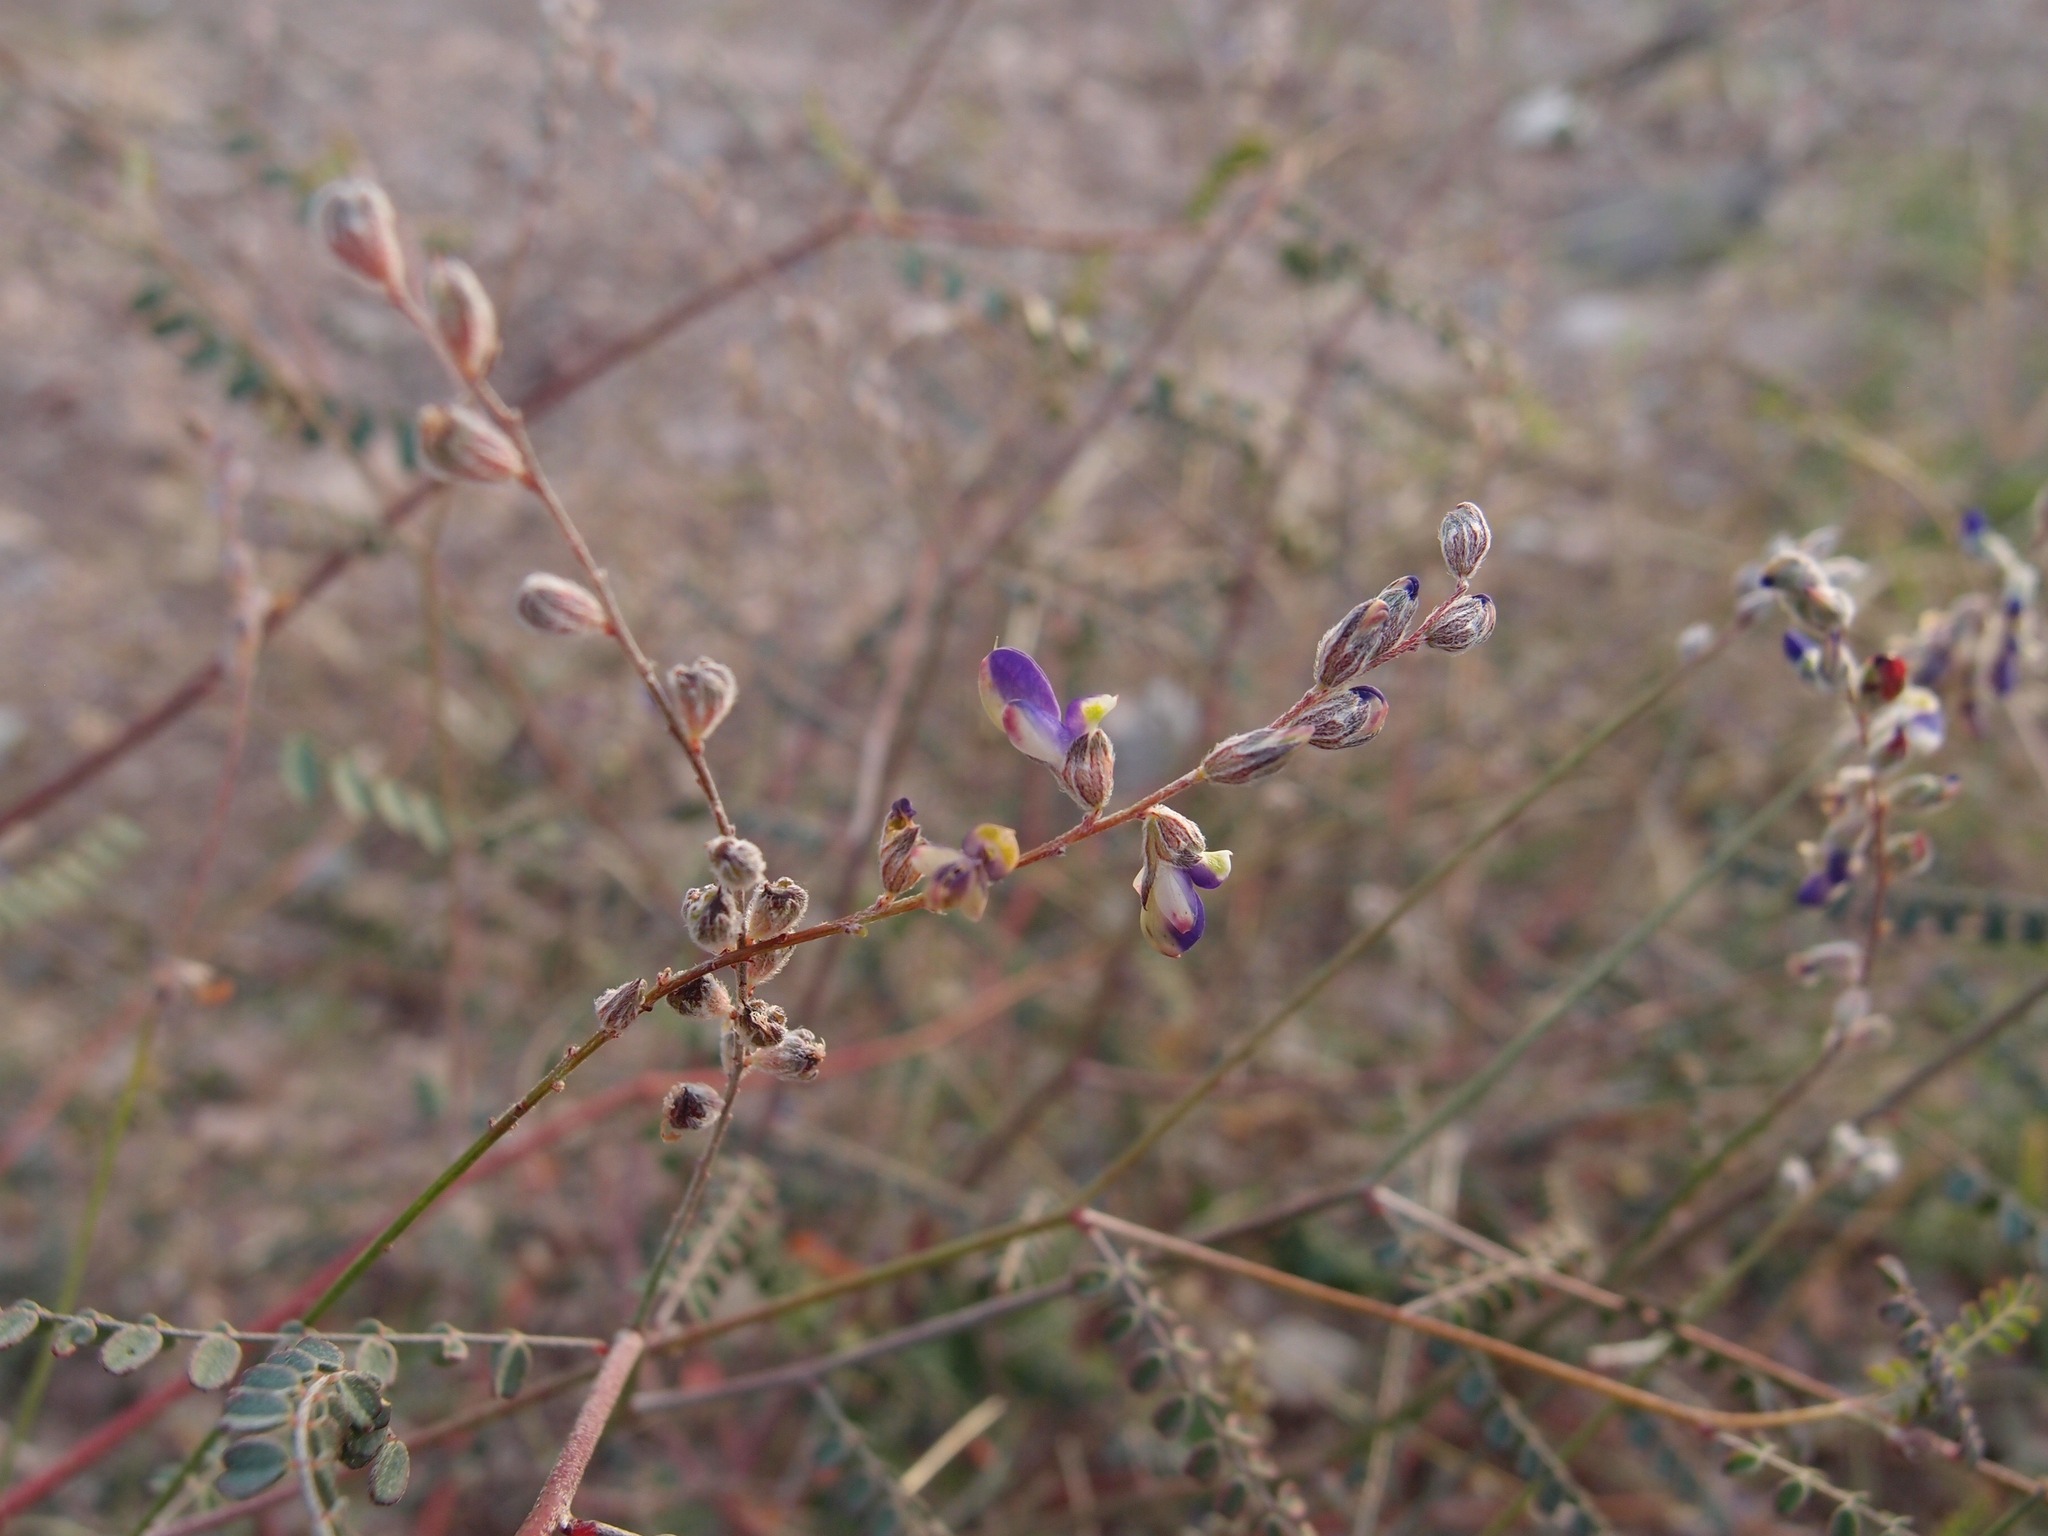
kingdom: Plantae
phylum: Tracheophyta
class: Magnoliopsida
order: Fabales
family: Fabaceae
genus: Marina
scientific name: Marina parryi
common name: Parry's marina
